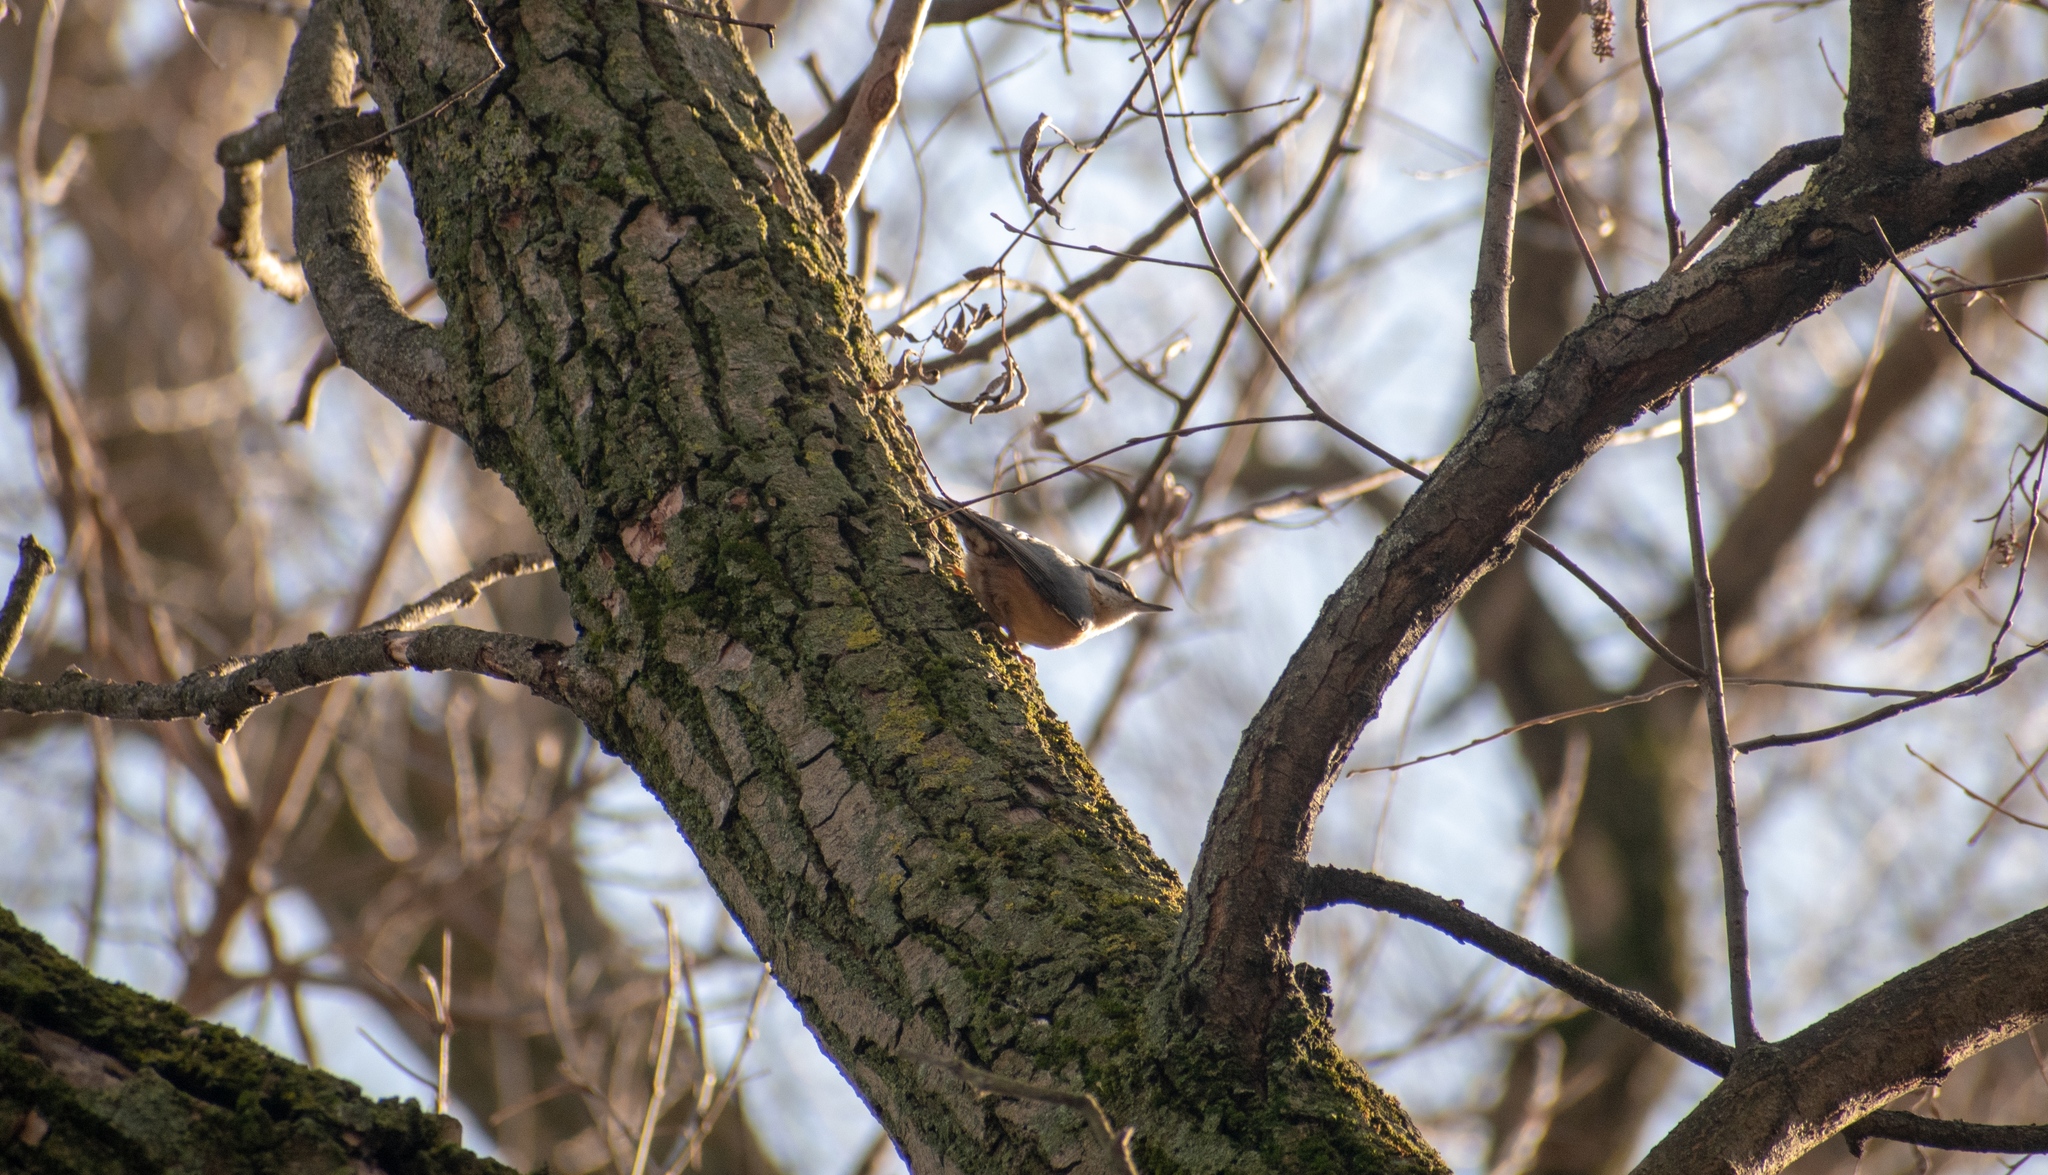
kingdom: Animalia
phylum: Chordata
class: Aves
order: Passeriformes
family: Sittidae
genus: Sitta
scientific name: Sitta europaea
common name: Eurasian nuthatch
